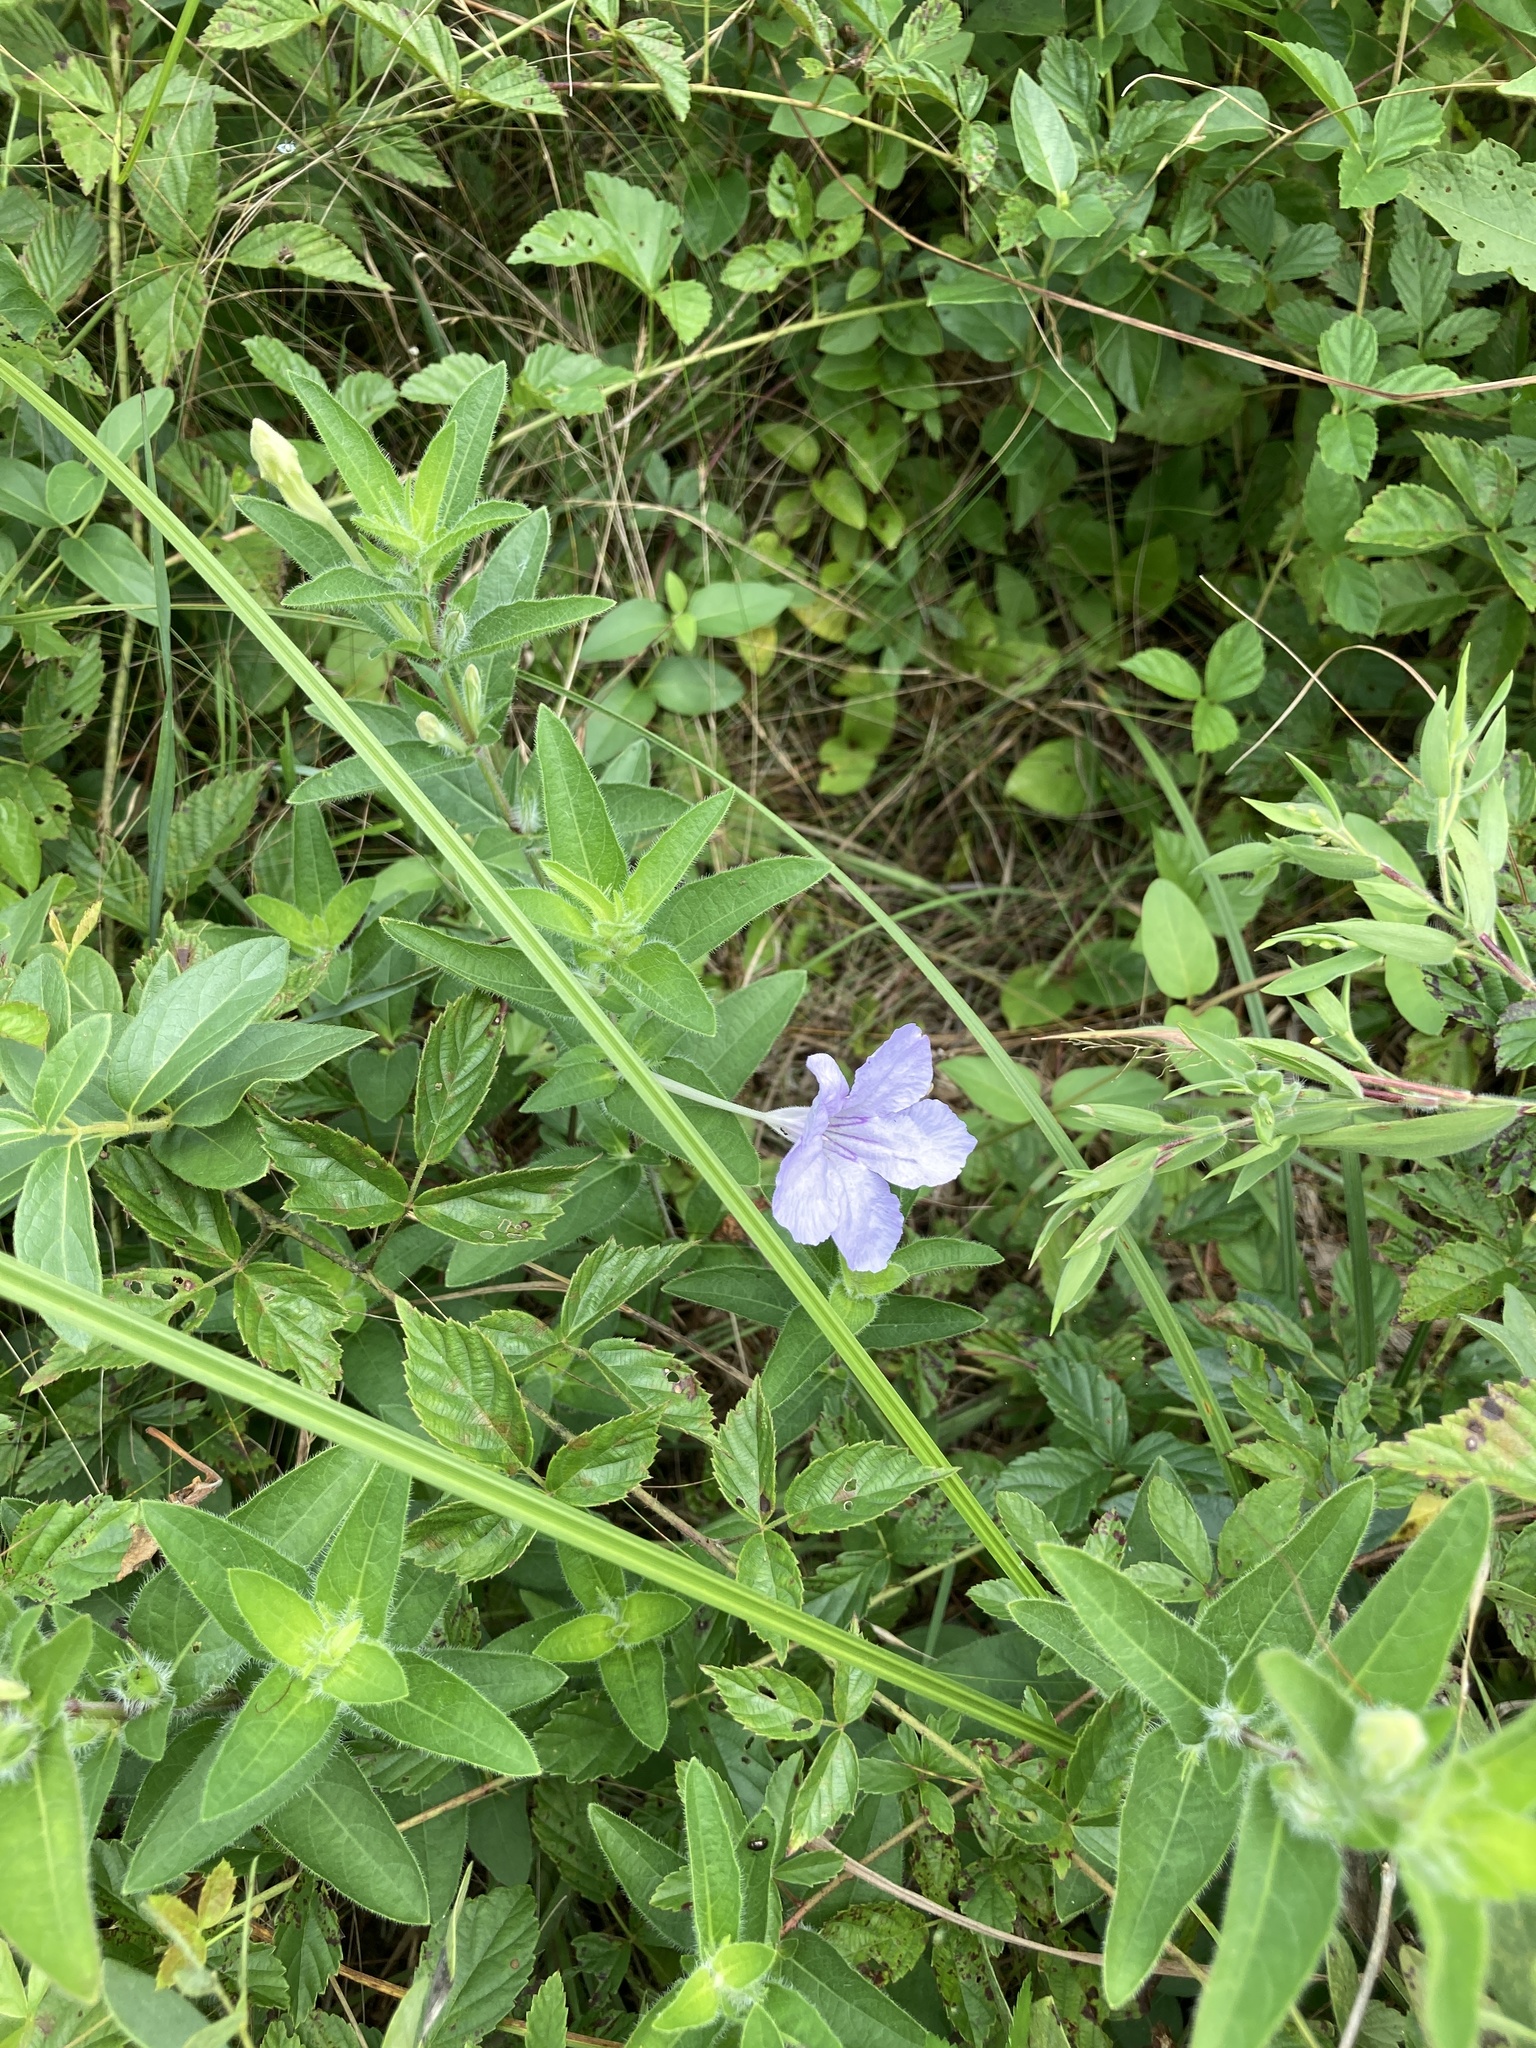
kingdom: Plantae
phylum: Tracheophyta
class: Magnoliopsida
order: Lamiales
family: Acanthaceae
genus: Ruellia
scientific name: Ruellia humilis
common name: Fringe-leaf ruellia
